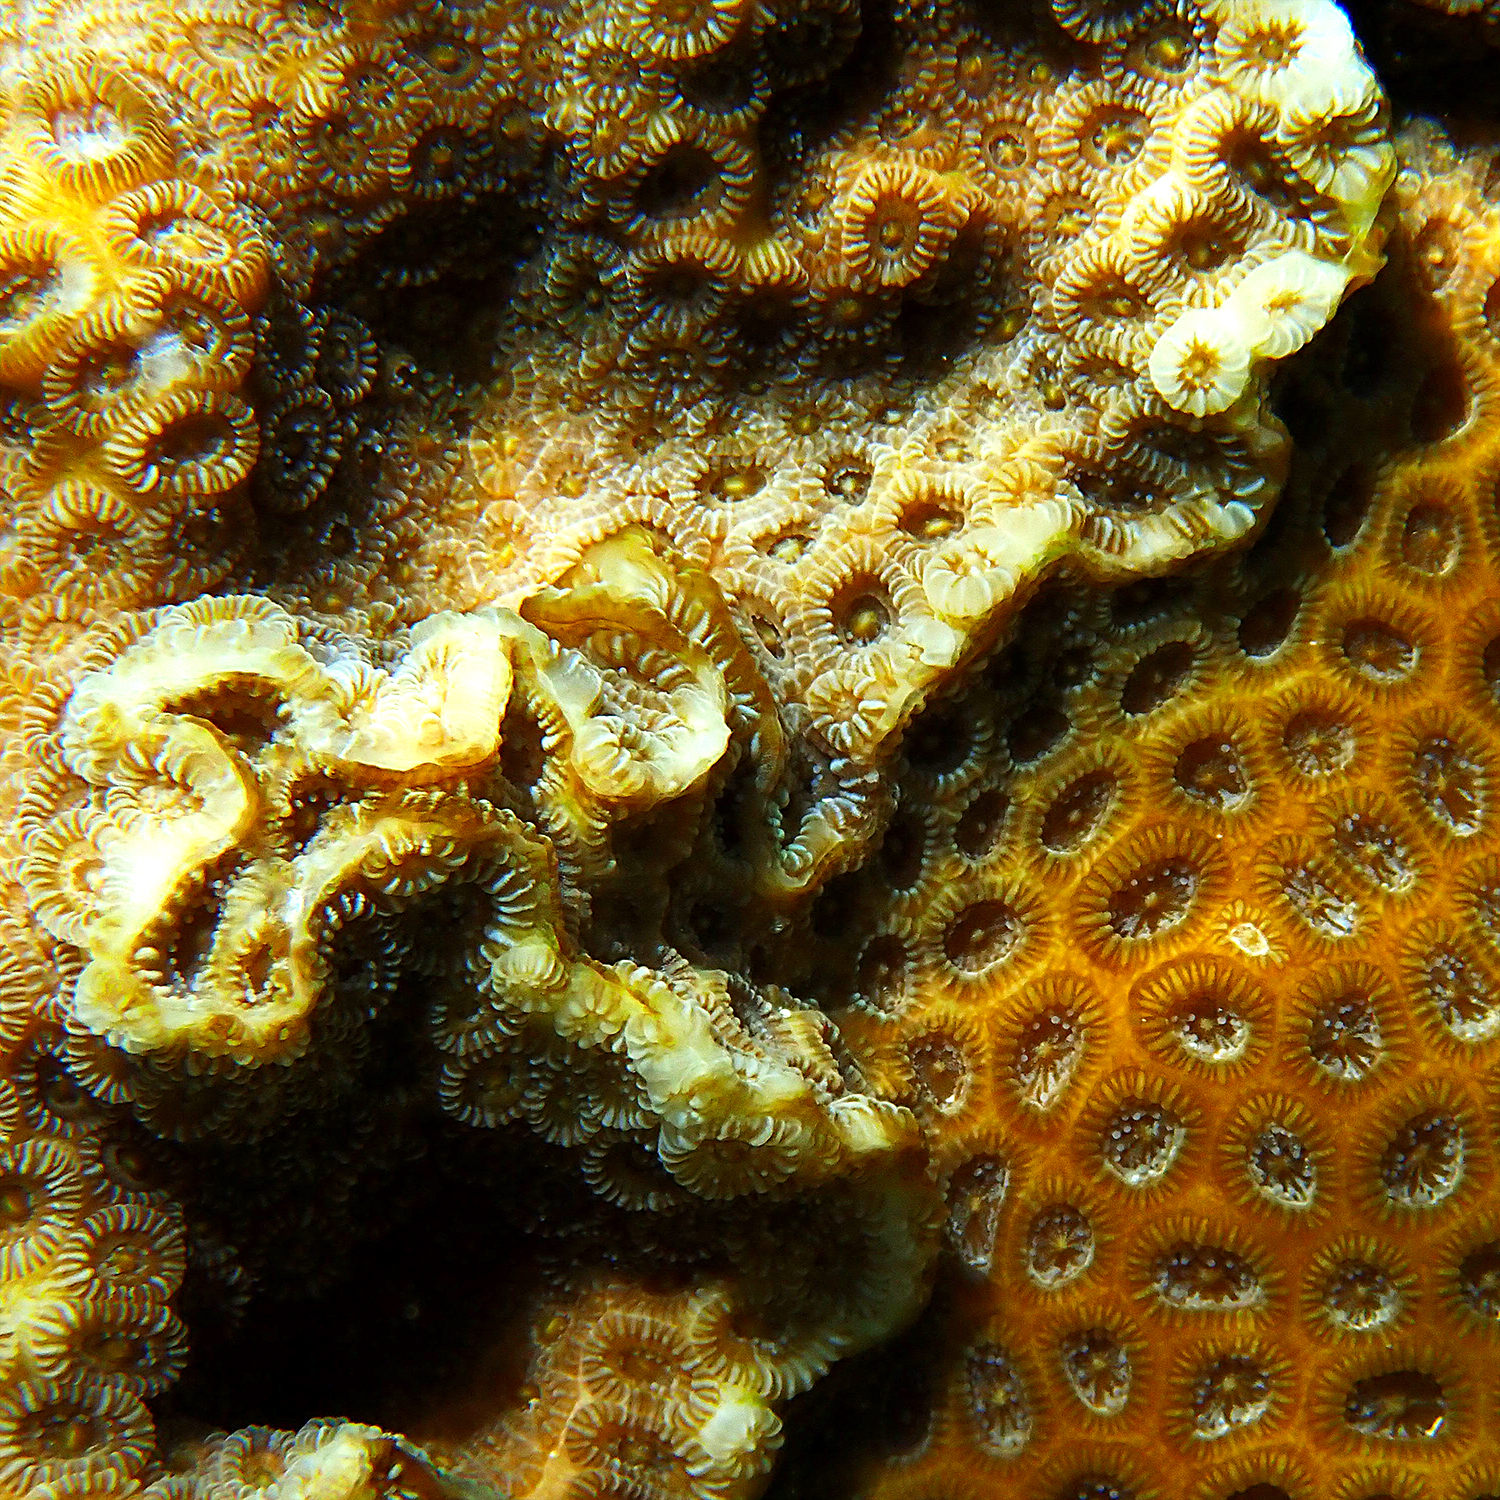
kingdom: Animalia
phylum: Cnidaria
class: Anthozoa
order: Scleractinia
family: Merulinidae
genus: Astrea
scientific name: Astrea curta
